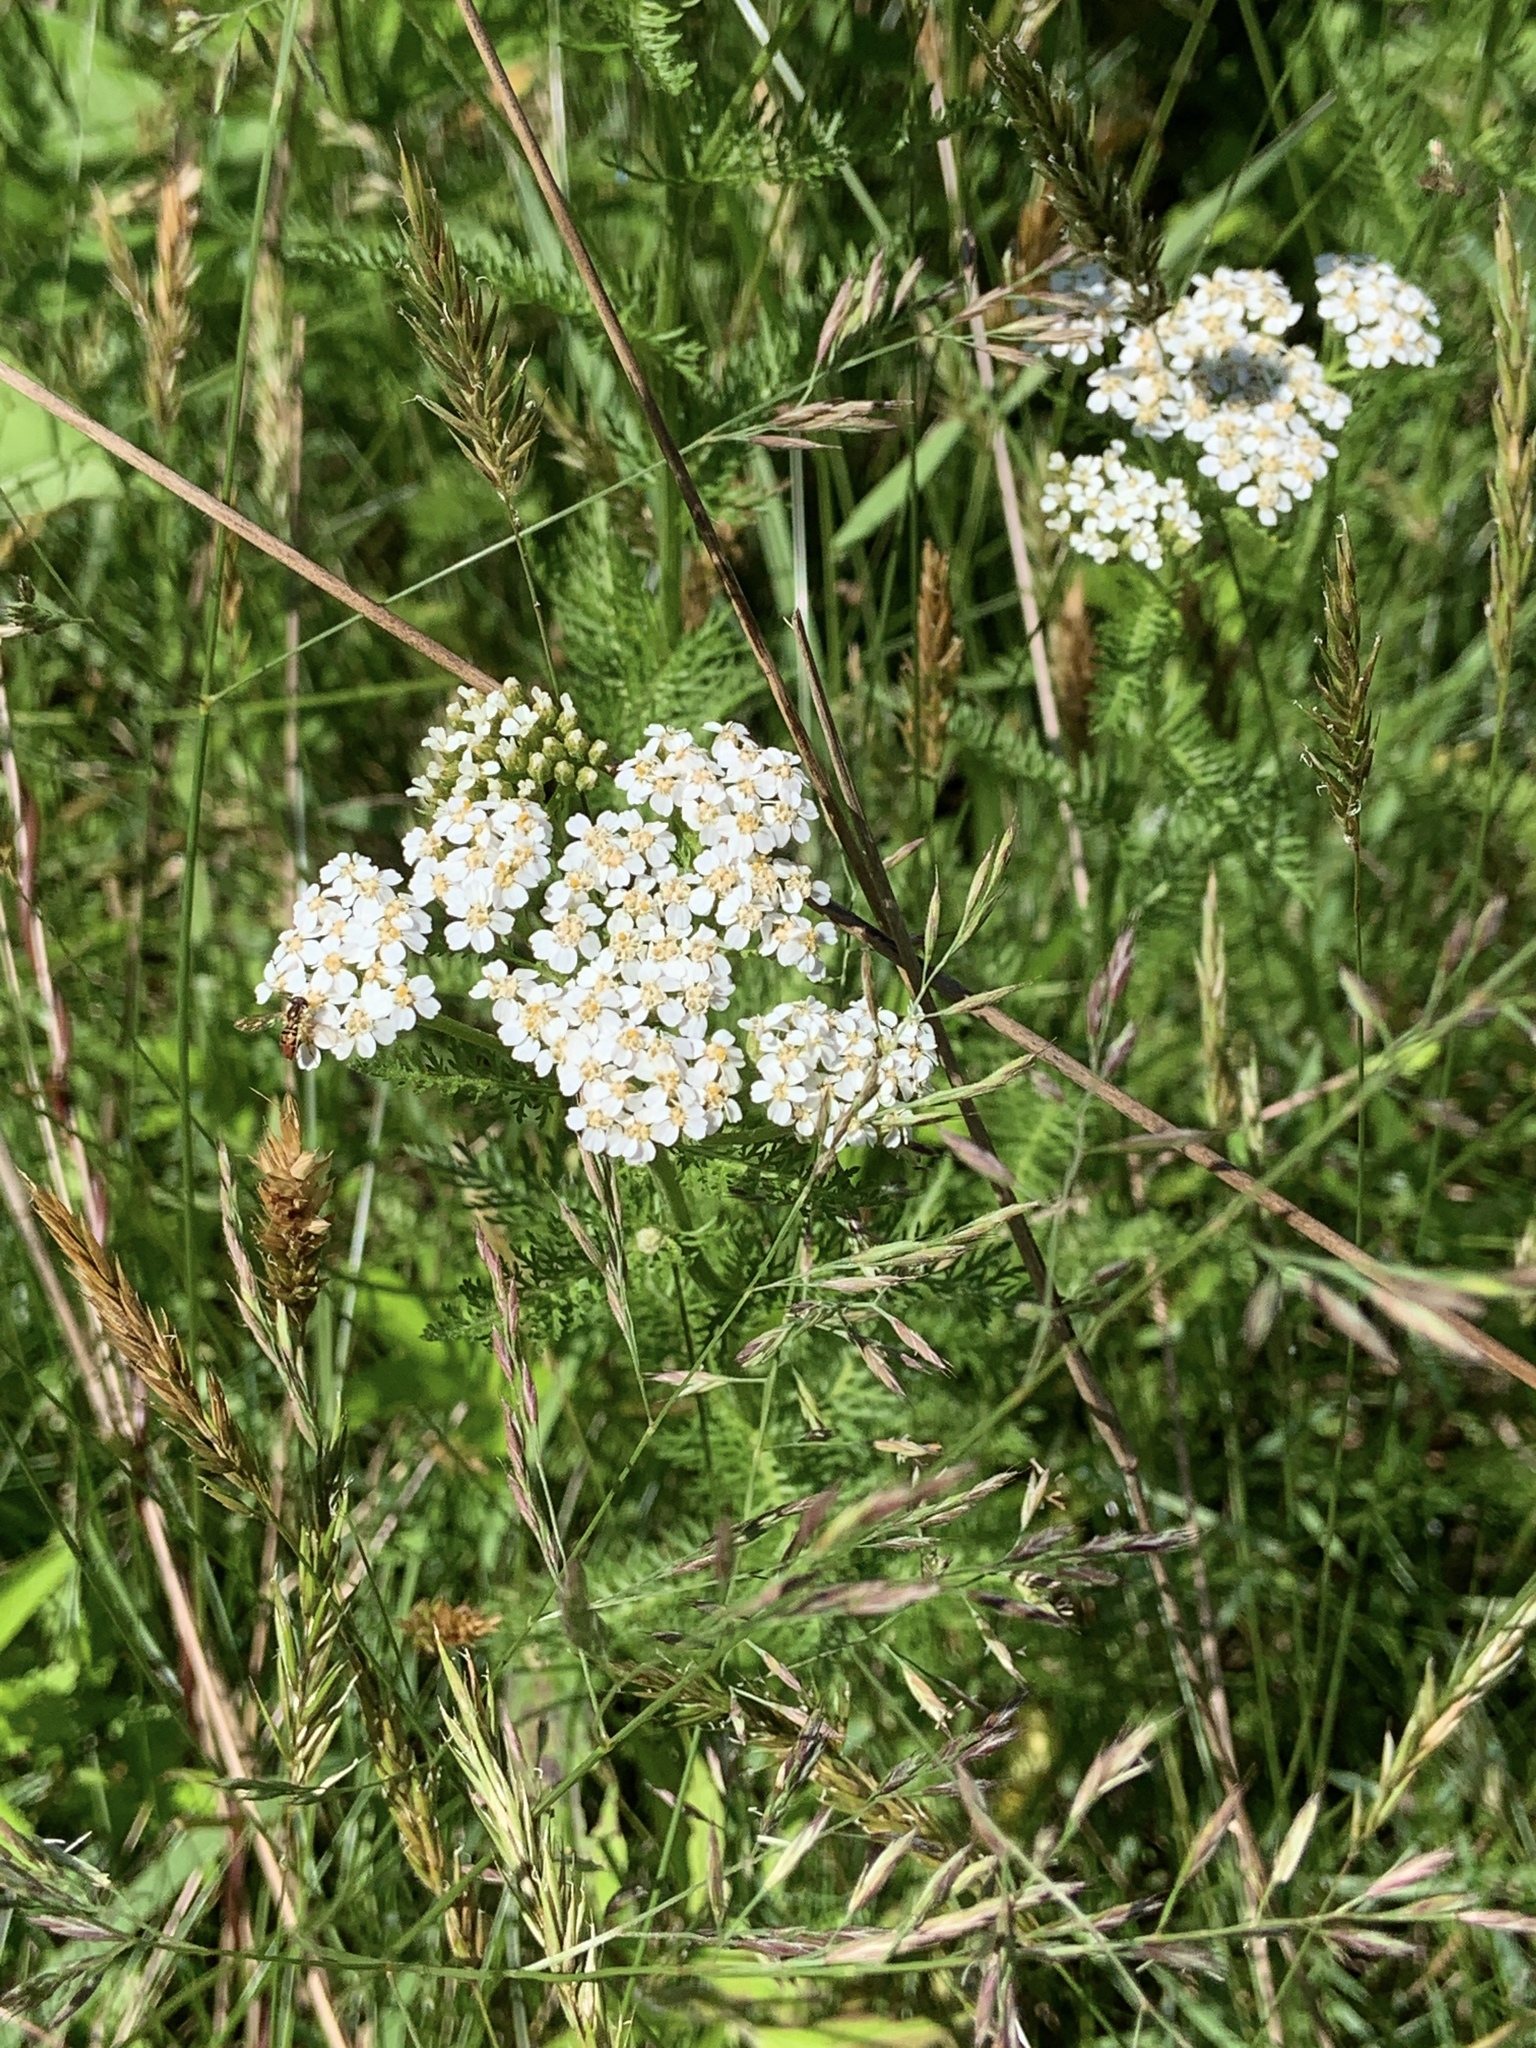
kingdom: Plantae
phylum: Tracheophyta
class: Magnoliopsida
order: Asterales
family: Asteraceae
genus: Achillea
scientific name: Achillea millefolium
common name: Yarrow
